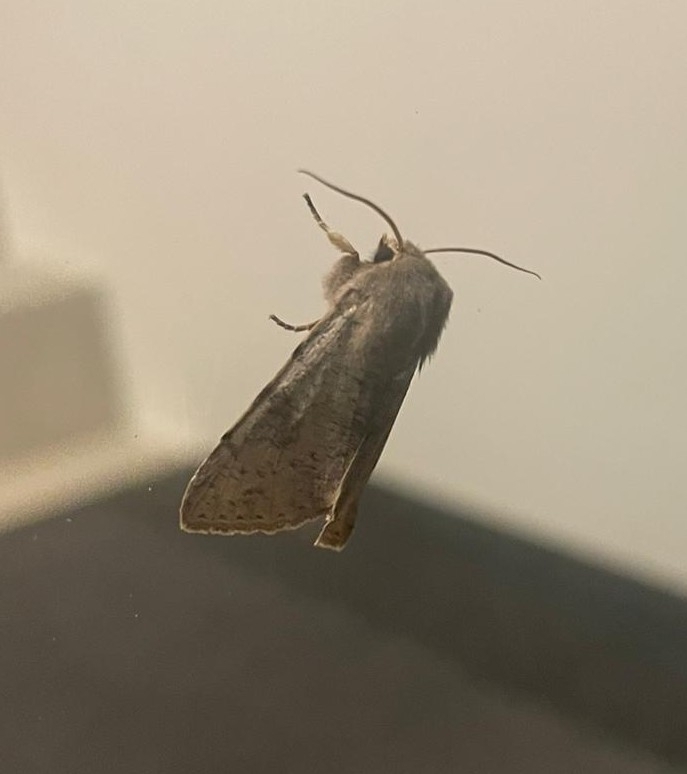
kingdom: Animalia
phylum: Arthropoda
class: Insecta
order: Lepidoptera
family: Noctuidae
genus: Orthosia
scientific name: Orthosia incerta
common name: Clouded drab
